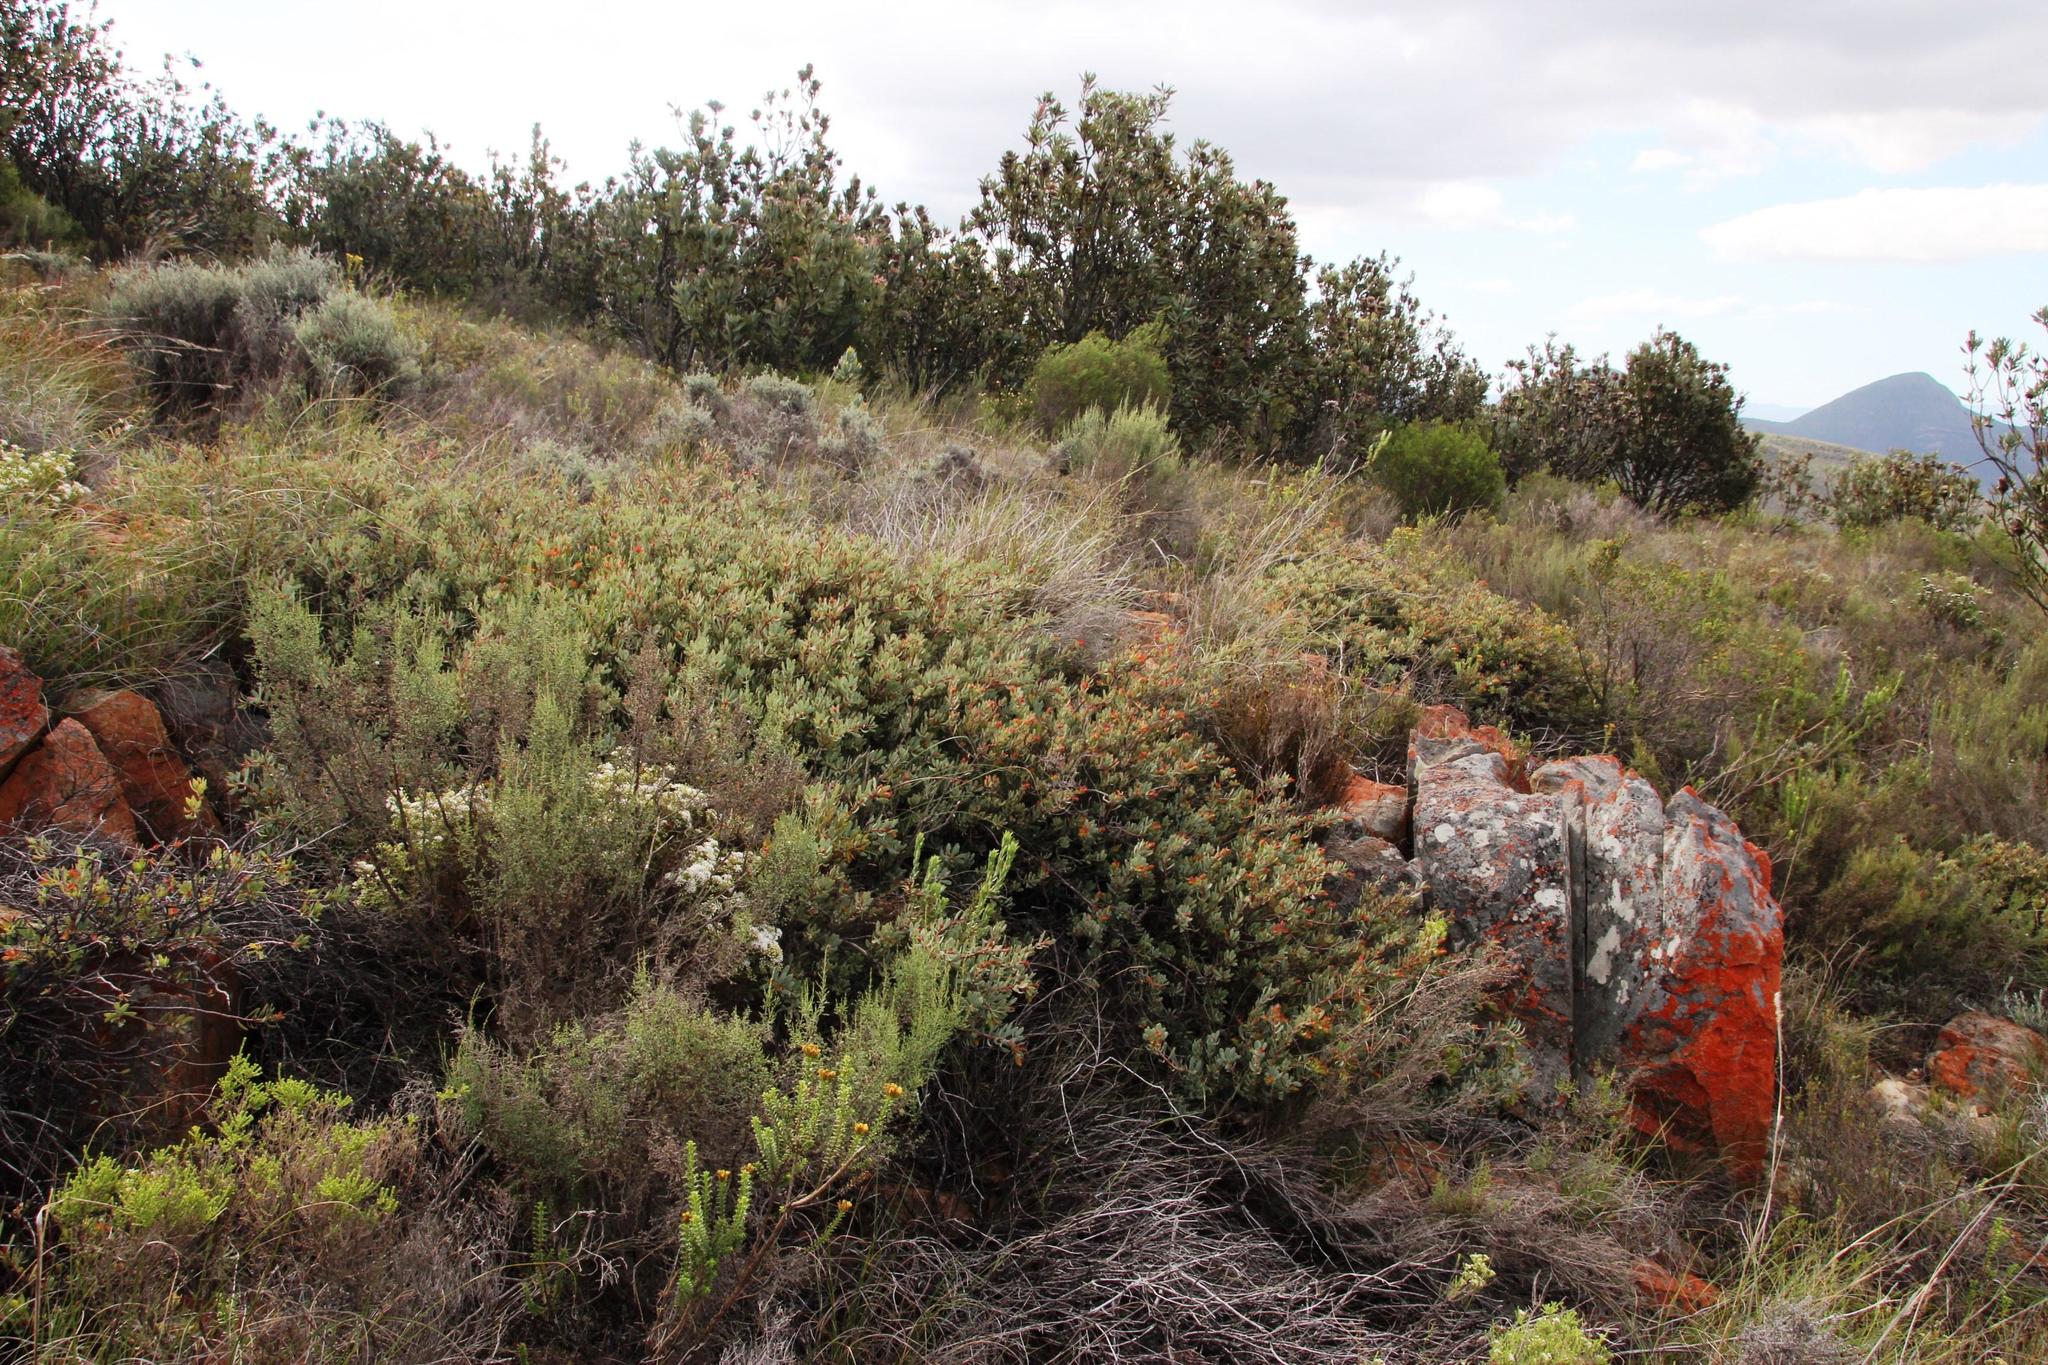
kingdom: Plantae
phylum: Tracheophyta
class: Magnoliopsida
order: Proteales
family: Proteaceae
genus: Protea
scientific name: Protea sulphurea
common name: Sulphur sugarbush
